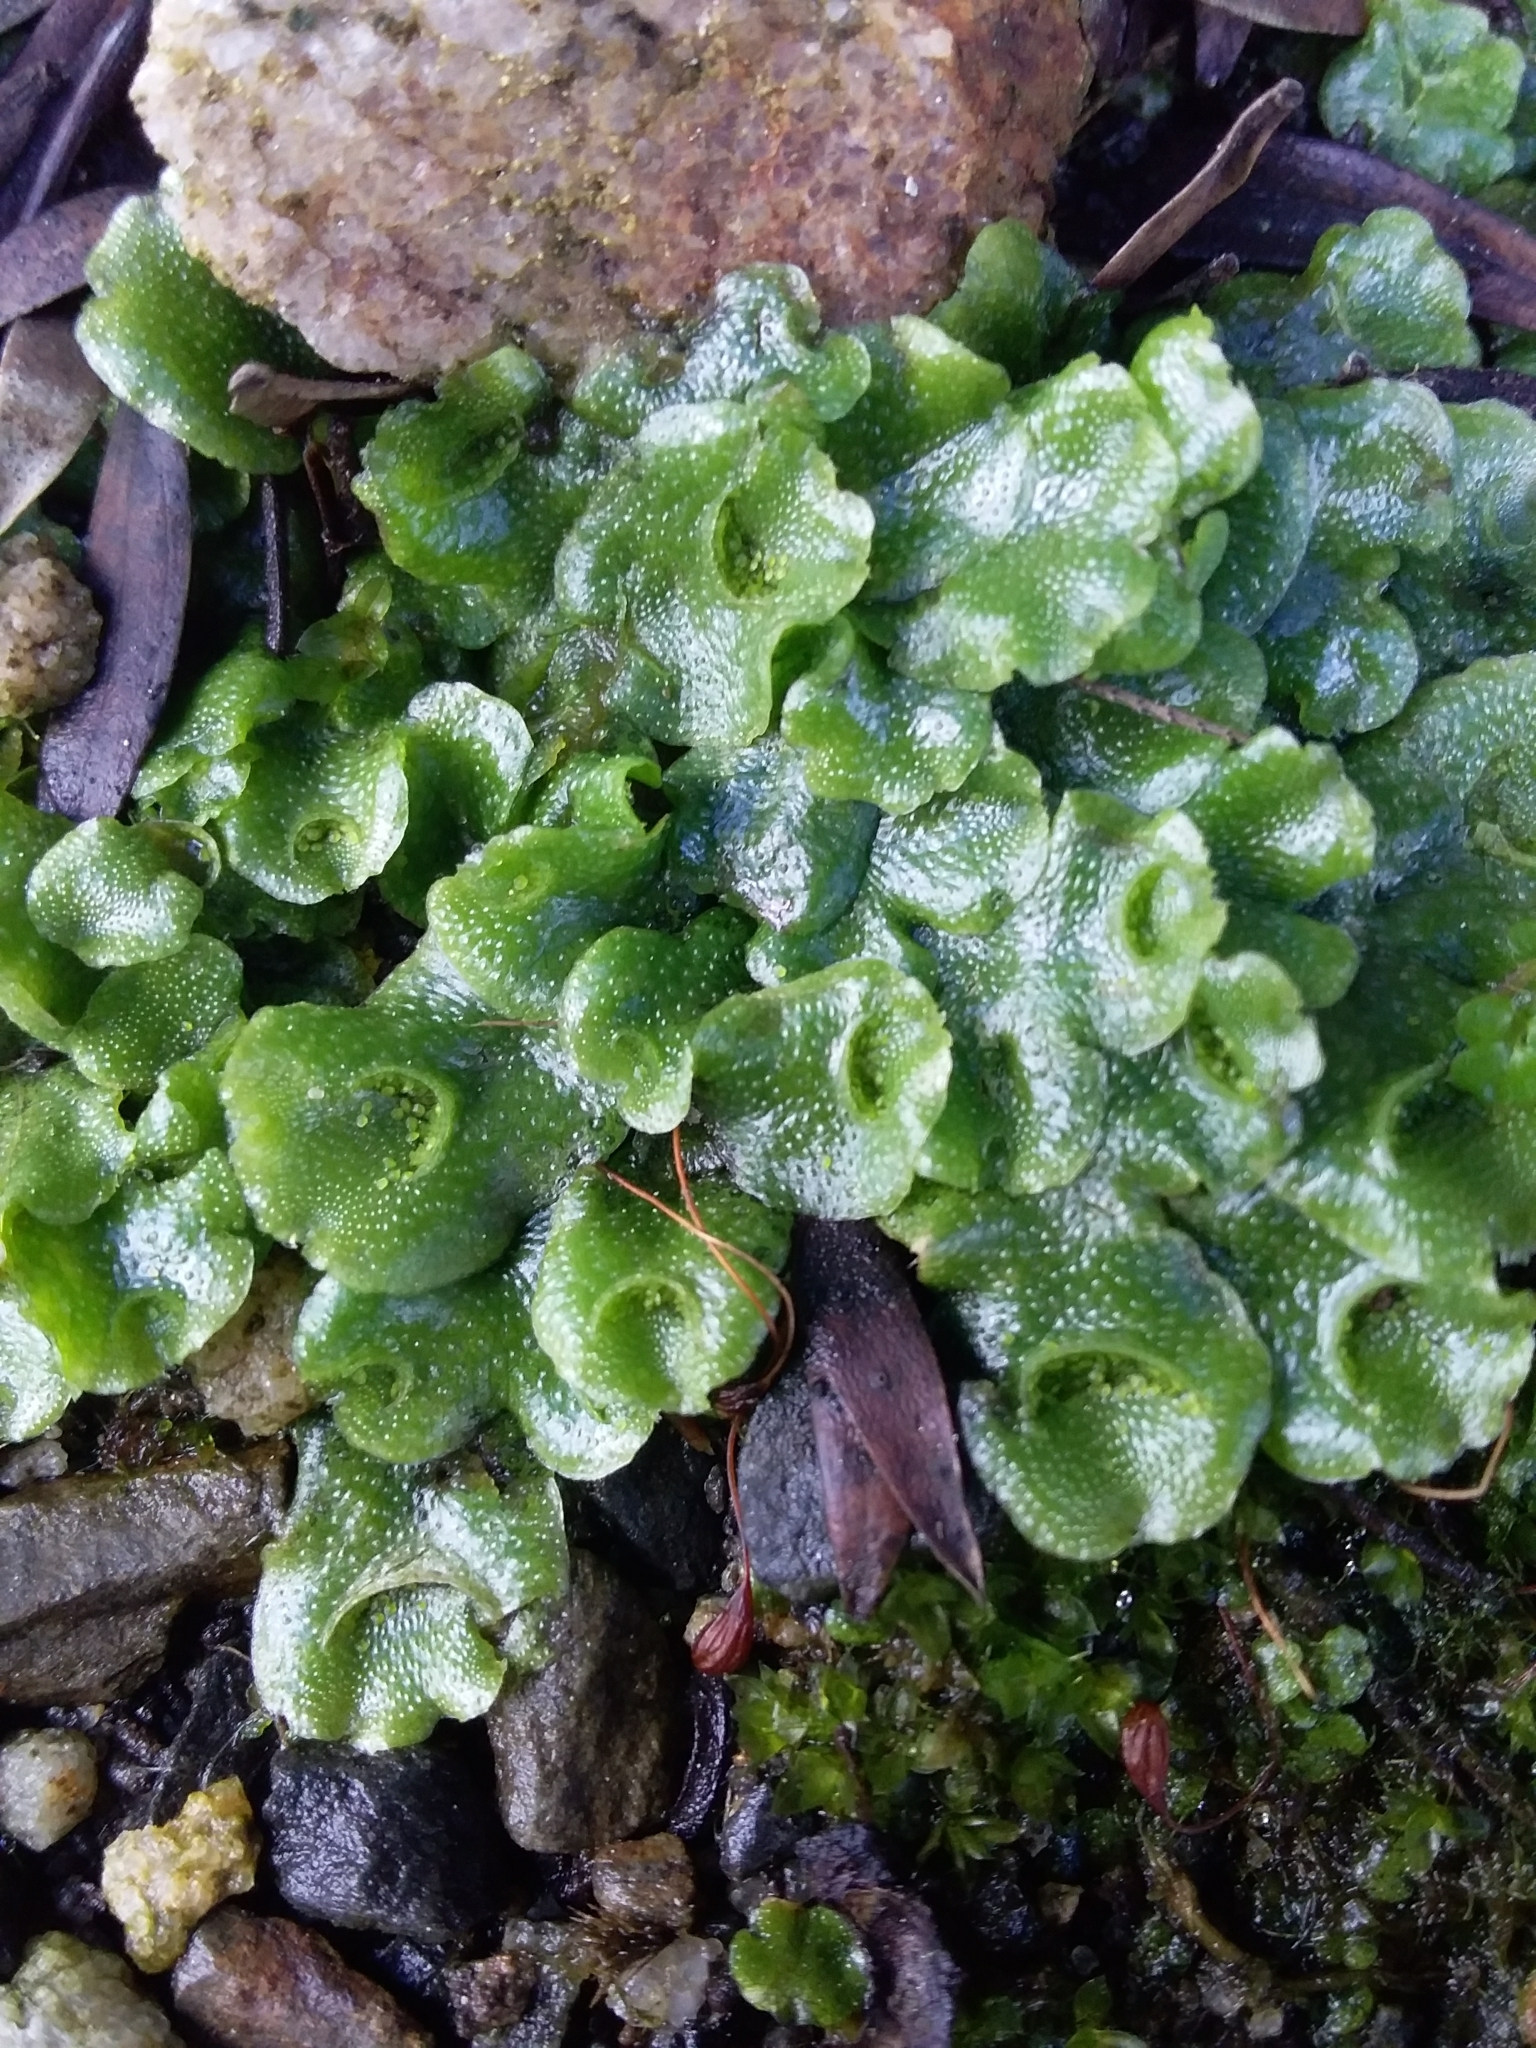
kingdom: Plantae
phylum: Marchantiophyta
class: Marchantiopsida
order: Lunulariales
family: Lunulariaceae
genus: Lunularia
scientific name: Lunularia cruciata
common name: Crescent-cup liverwort
